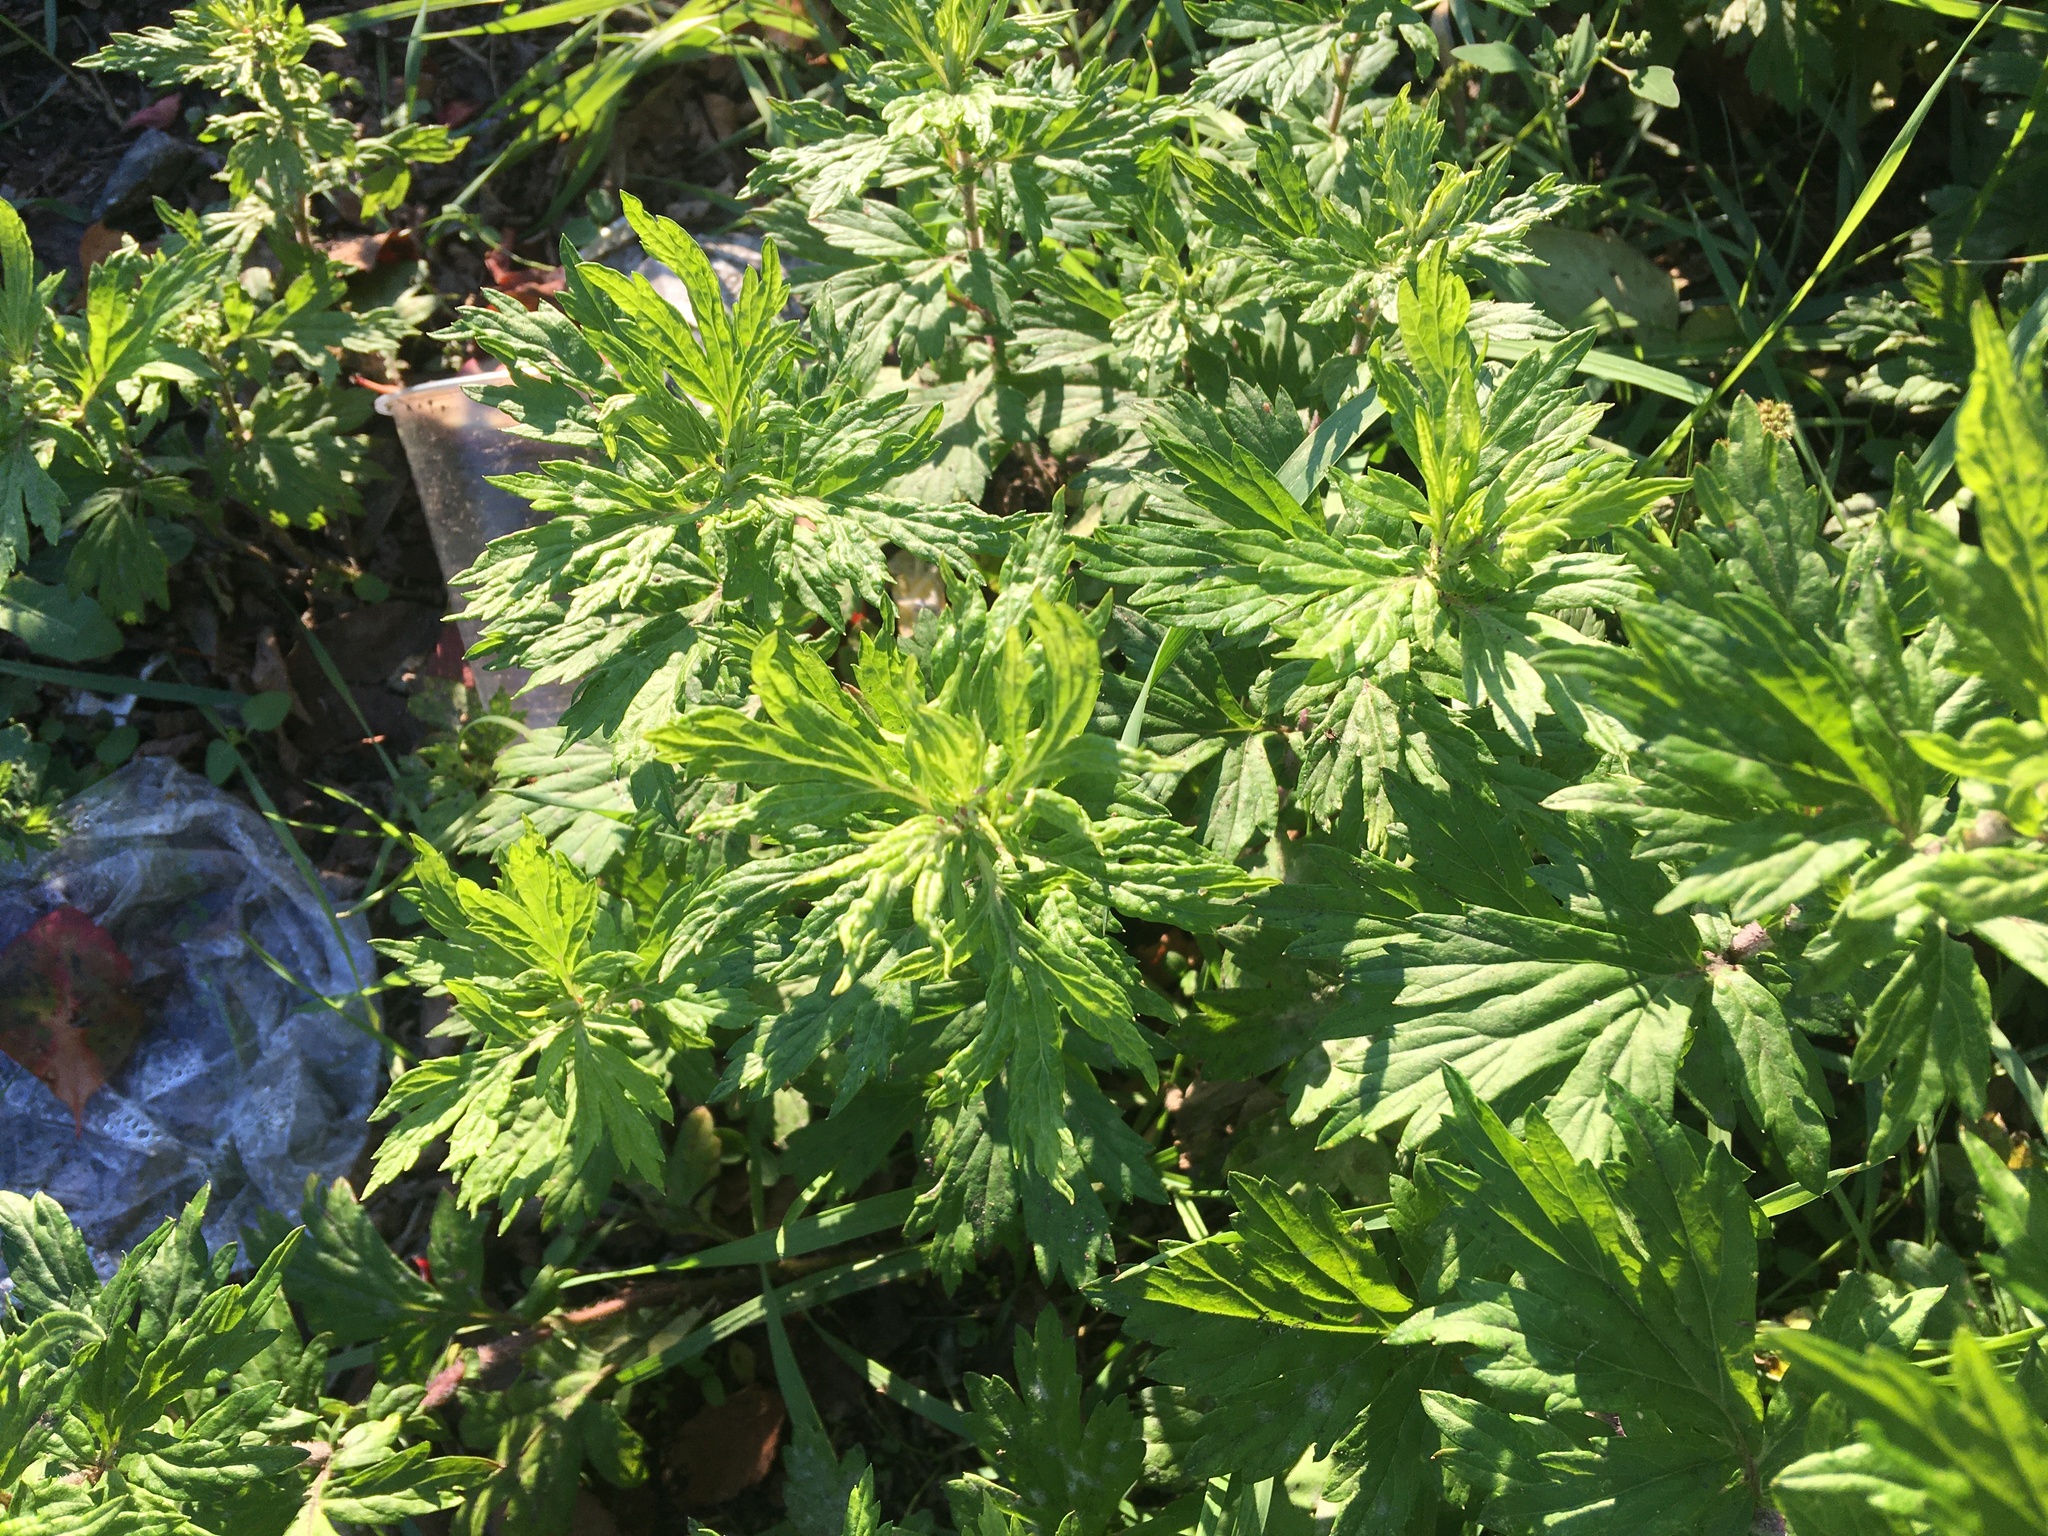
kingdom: Plantae
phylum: Tracheophyta
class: Magnoliopsida
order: Asterales
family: Asteraceae
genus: Artemisia
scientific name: Artemisia vulgaris
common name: Mugwort
